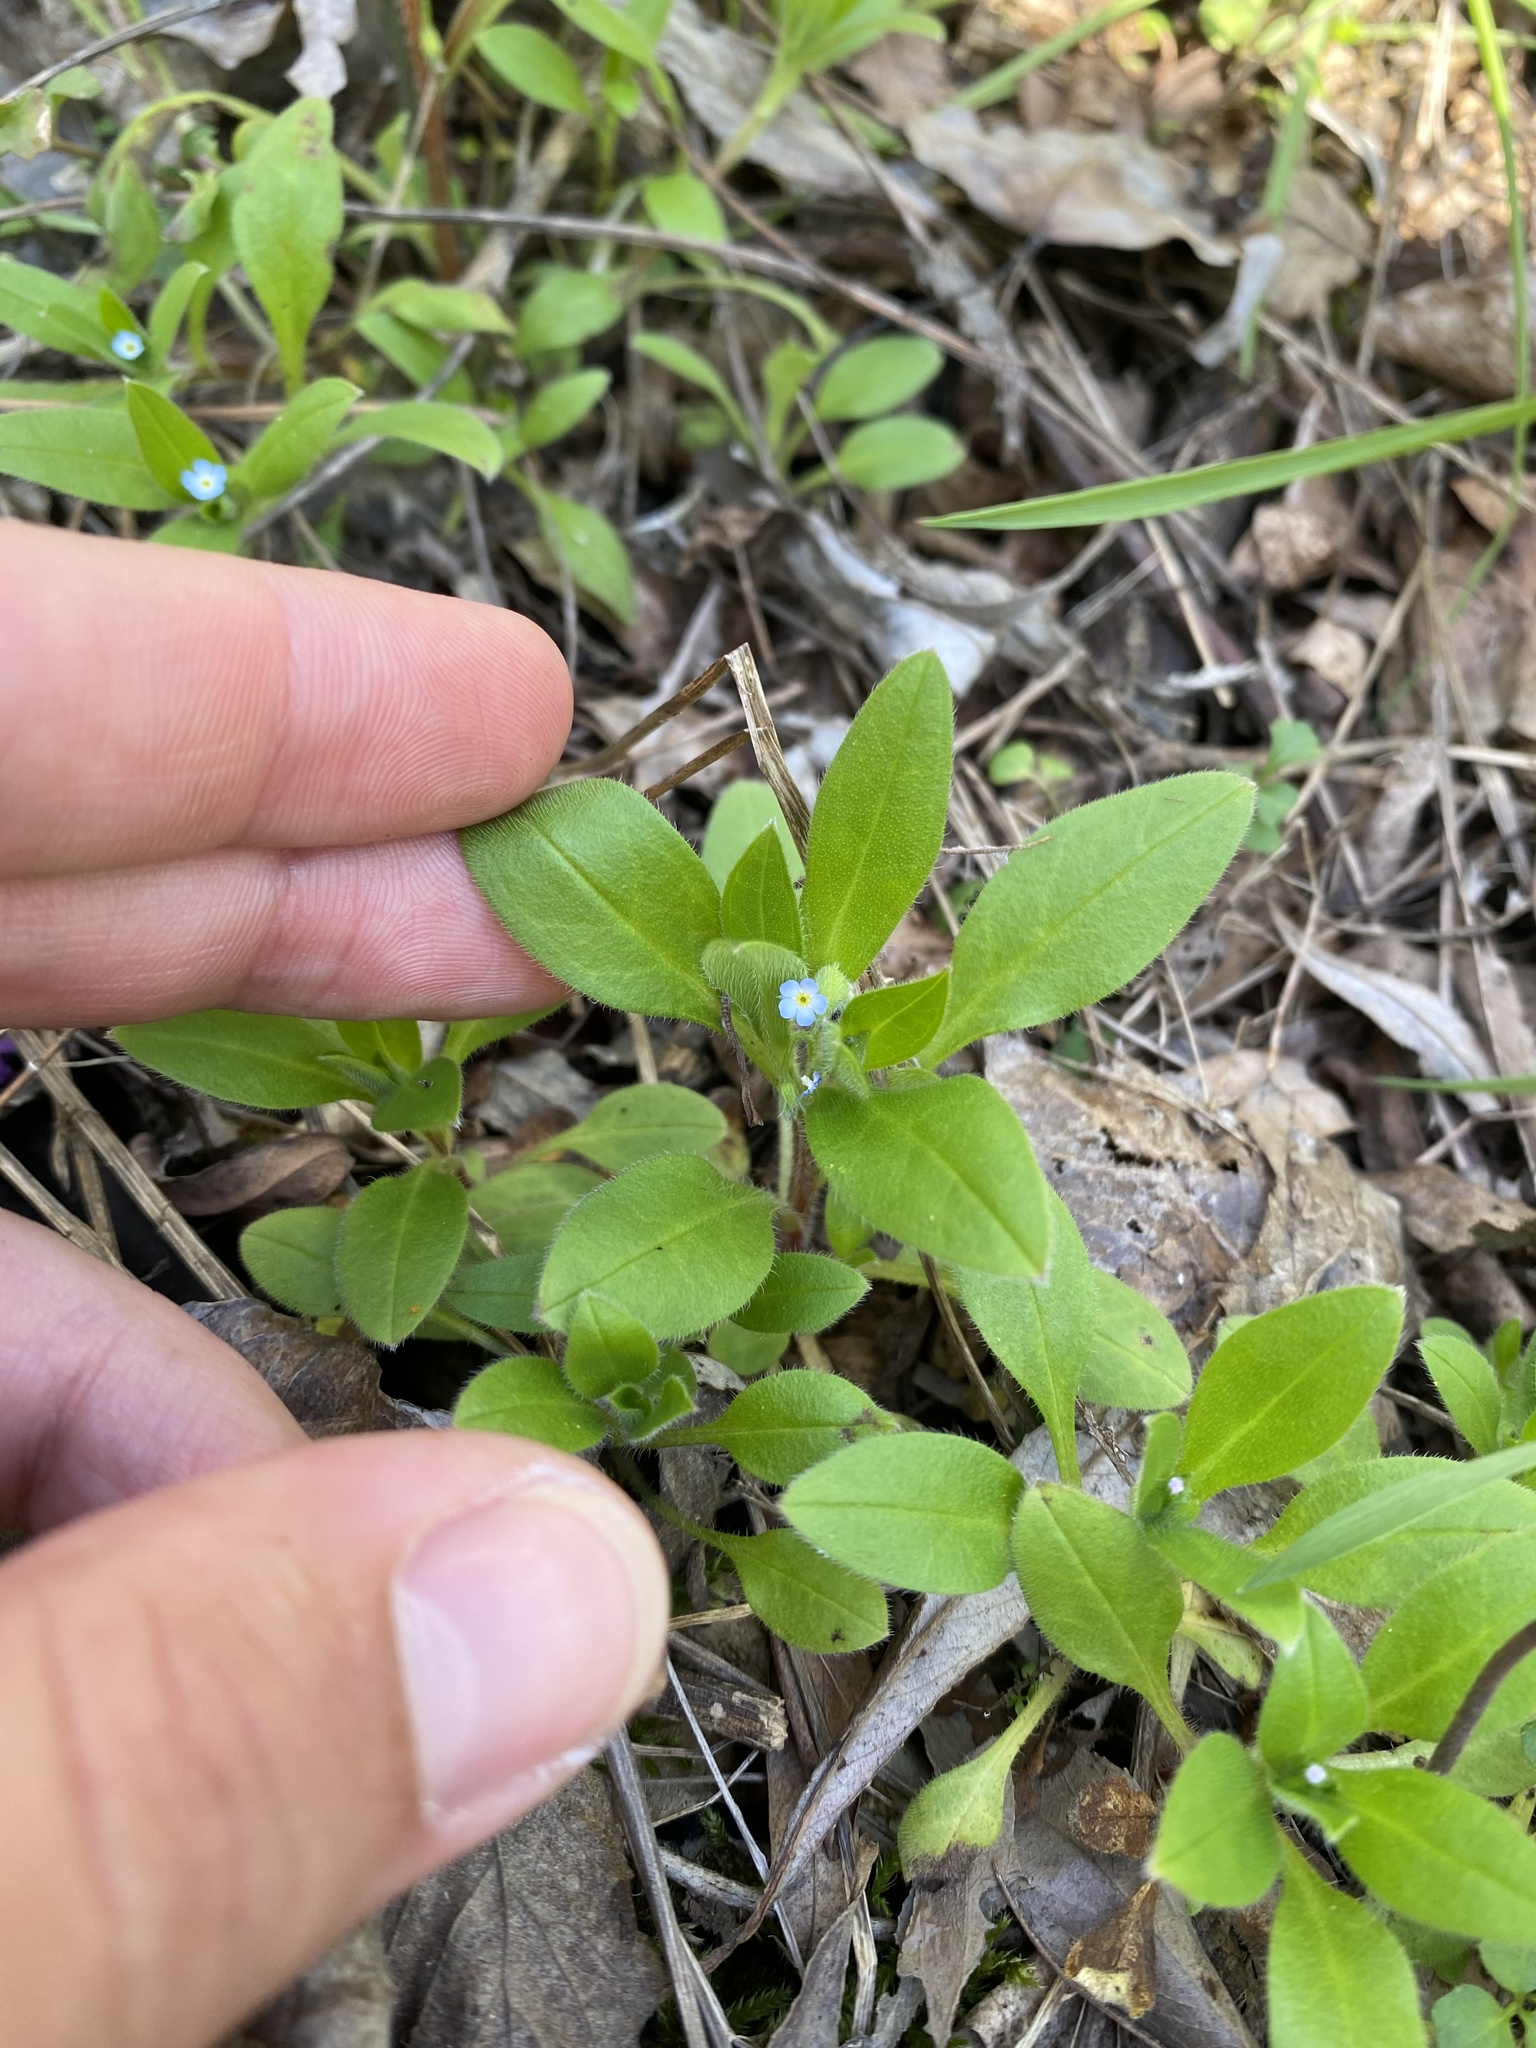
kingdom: Plantae
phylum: Tracheophyta
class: Magnoliopsida
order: Boraginales
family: Boraginaceae
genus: Myosotis
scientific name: Myosotis sparsiflora
